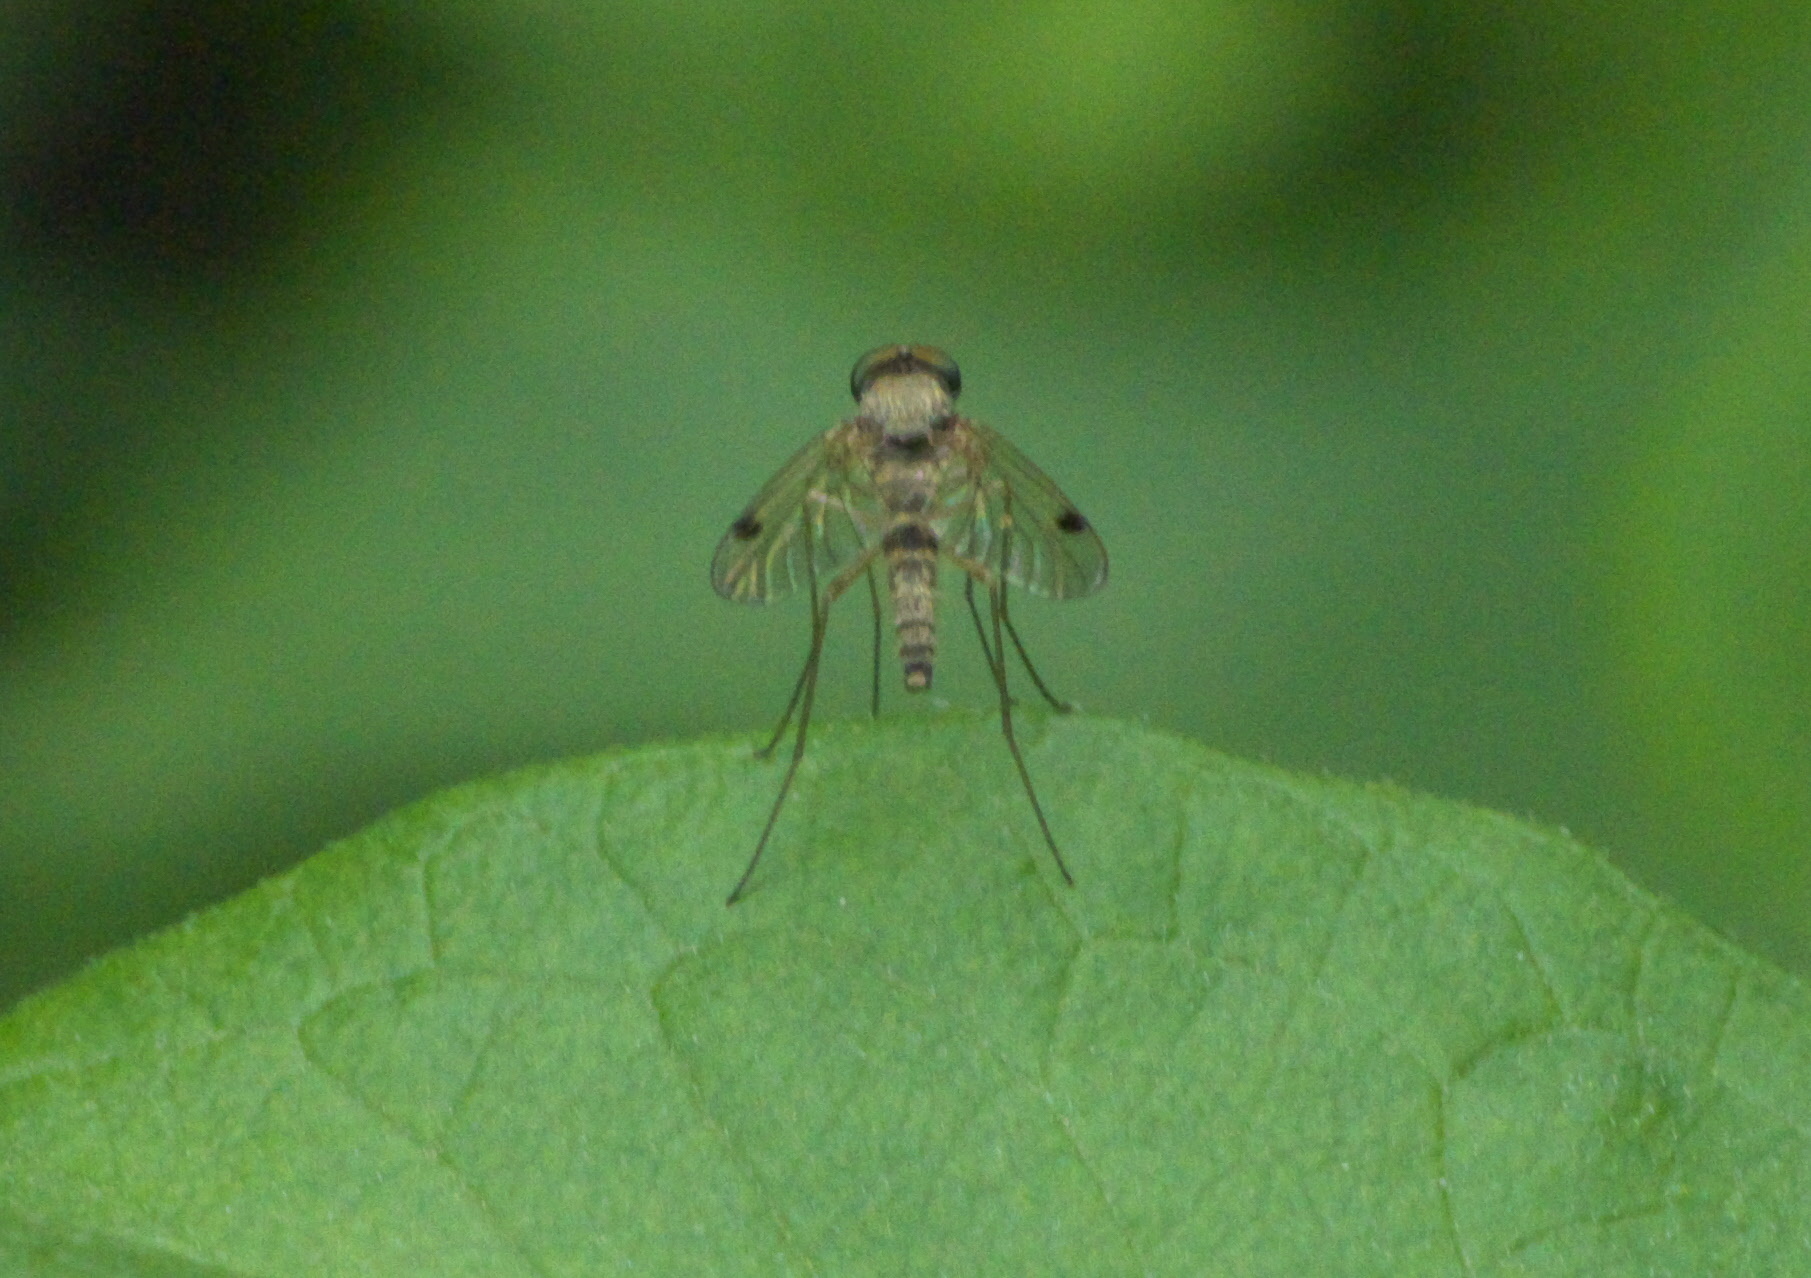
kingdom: Animalia
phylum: Arthropoda
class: Insecta
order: Diptera
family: Rhagionidae
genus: Chrysopilus
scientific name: Chrysopilus modestus
